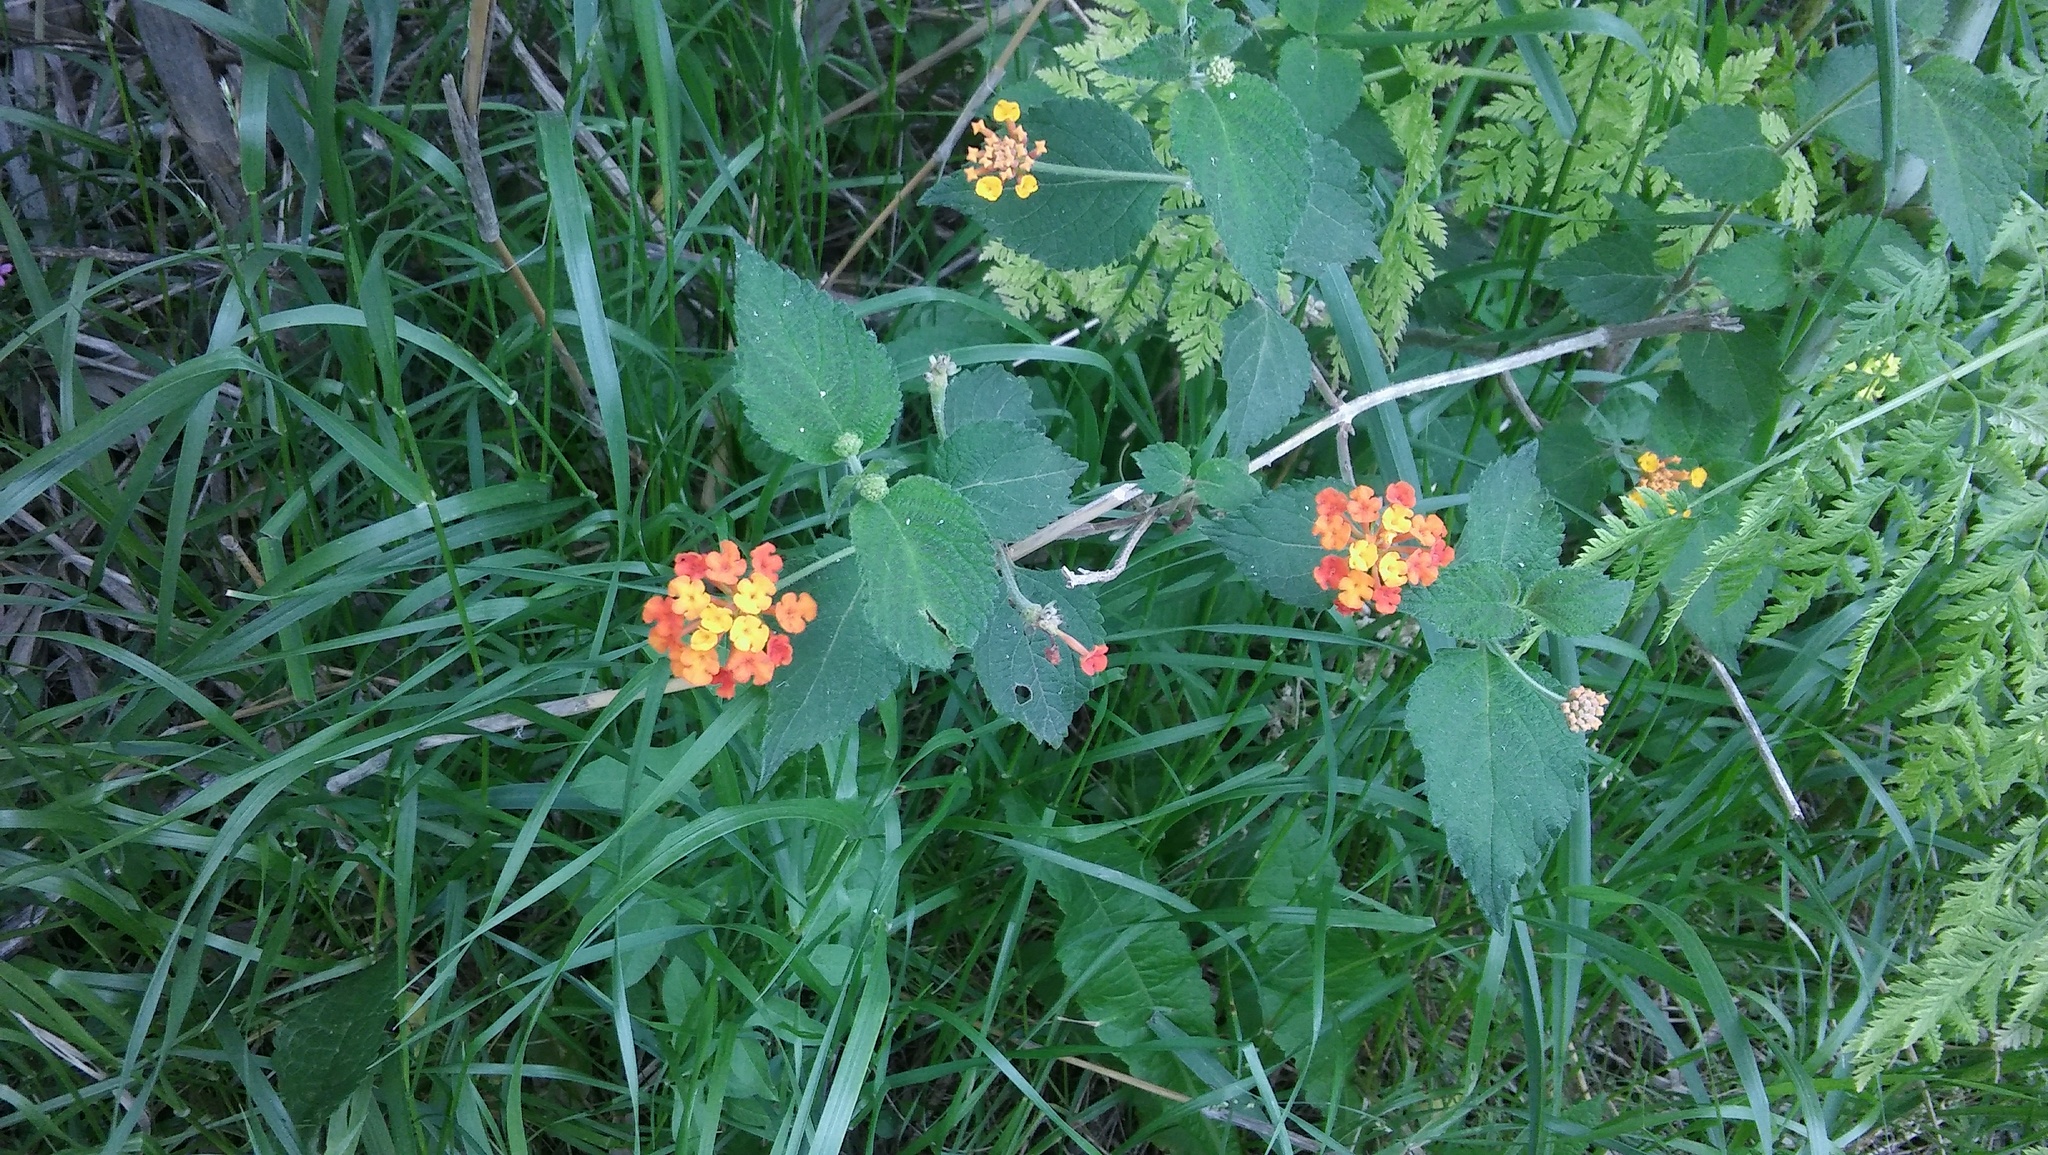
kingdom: Plantae
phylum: Tracheophyta
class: Magnoliopsida
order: Lamiales
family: Verbenaceae
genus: Lantana
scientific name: Lantana camara
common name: Lantana
